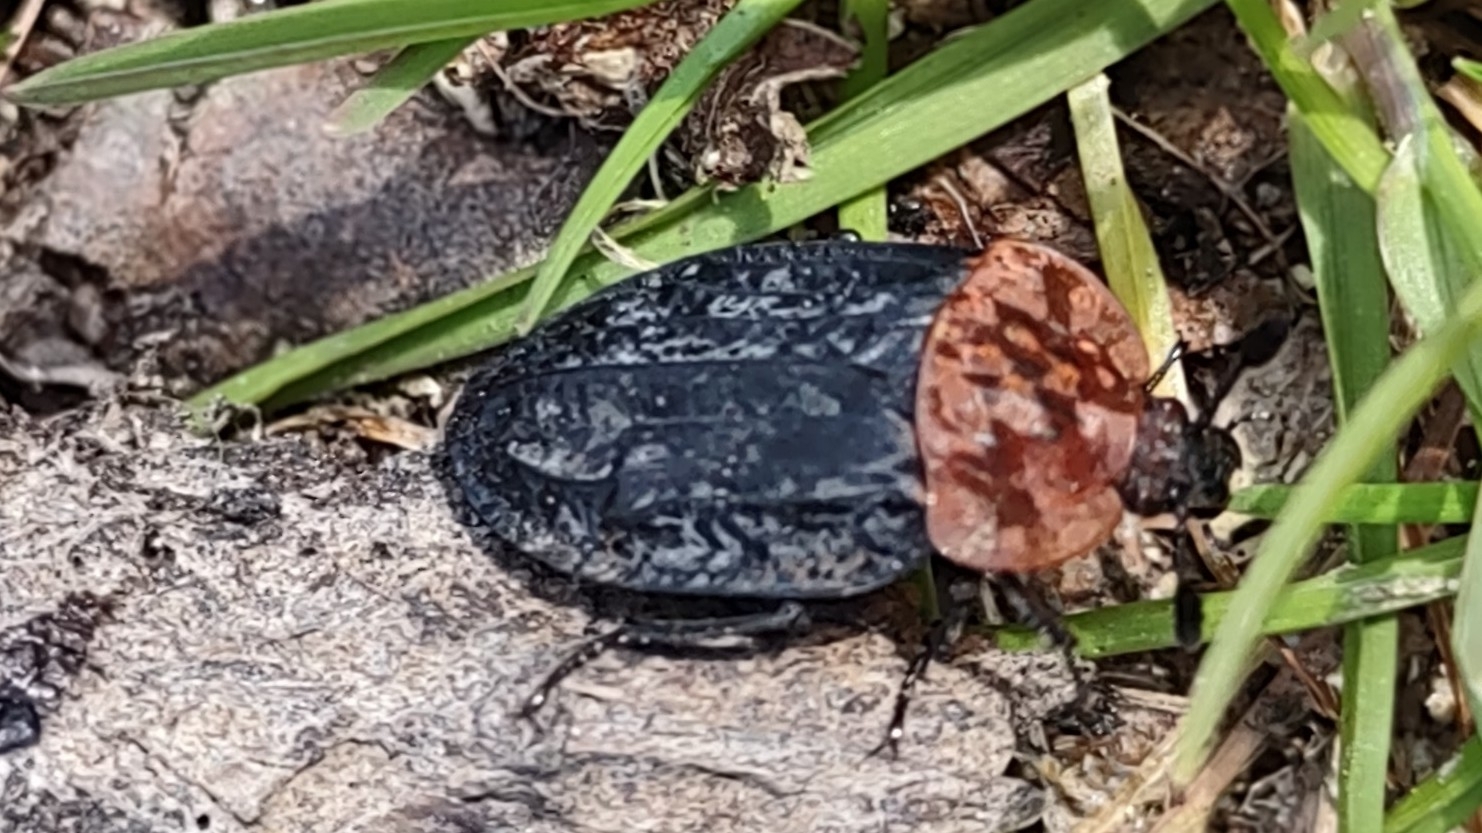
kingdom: Animalia
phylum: Arthropoda
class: Insecta
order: Coleoptera
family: Staphylinidae
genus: Oiceoptoma
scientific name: Oiceoptoma thoracicum
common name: Red-breasted carrion beetle
